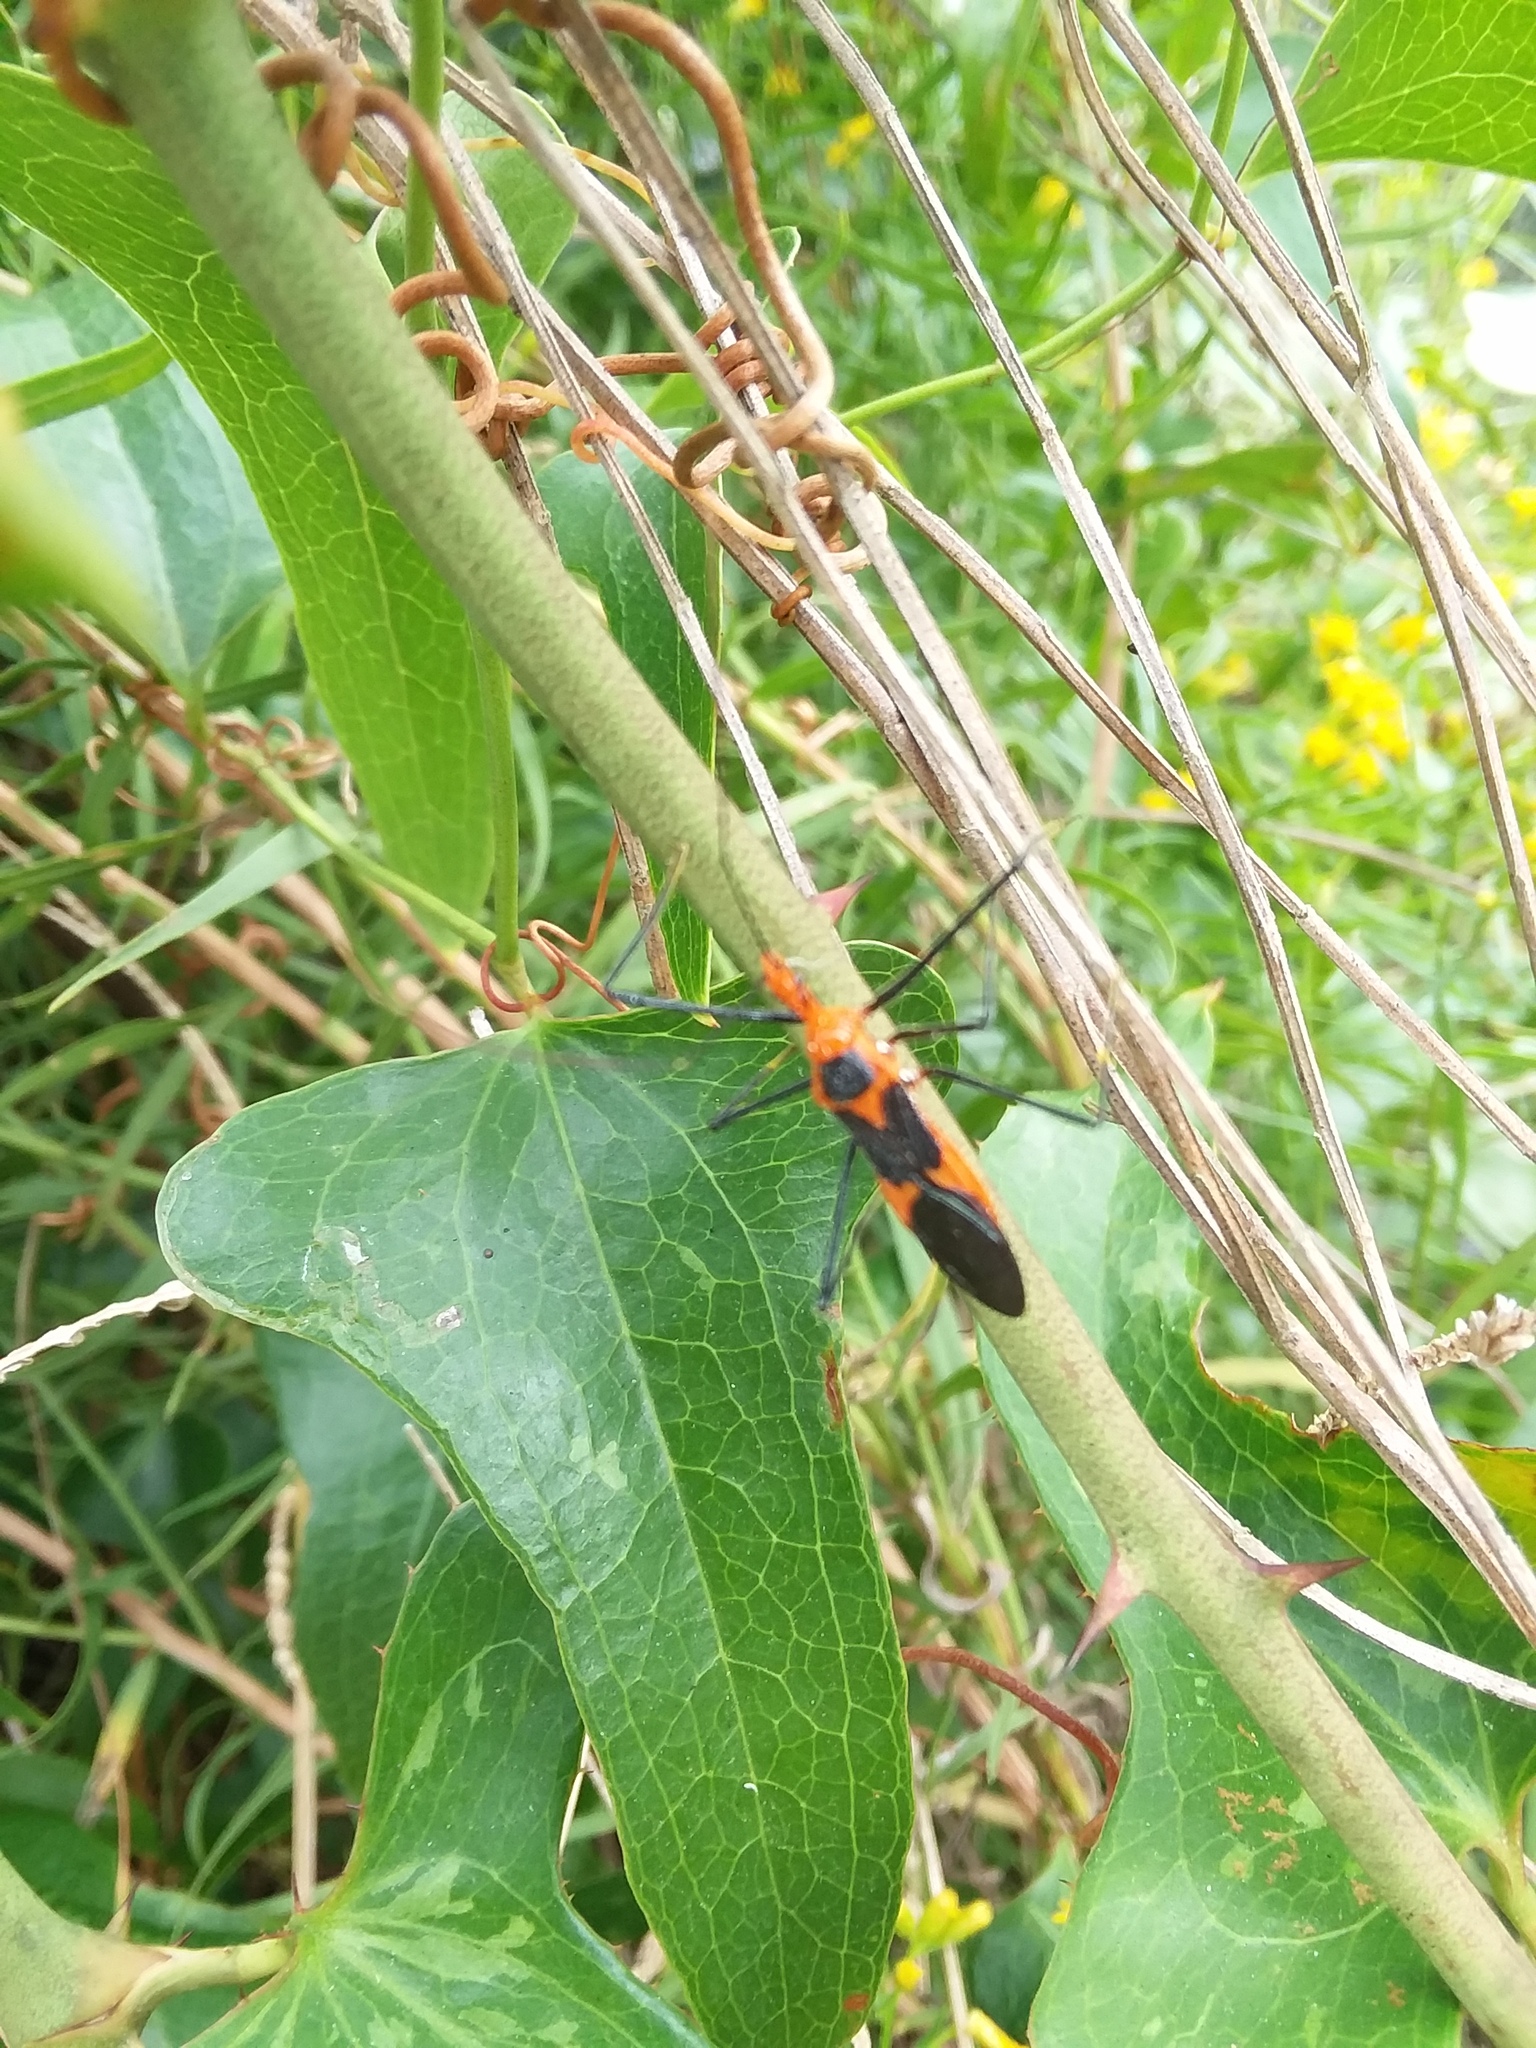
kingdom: Animalia
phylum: Arthropoda
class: Insecta
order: Hemiptera
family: Reduviidae
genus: Zelus
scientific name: Zelus longipes
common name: Milkweed assassin bug
